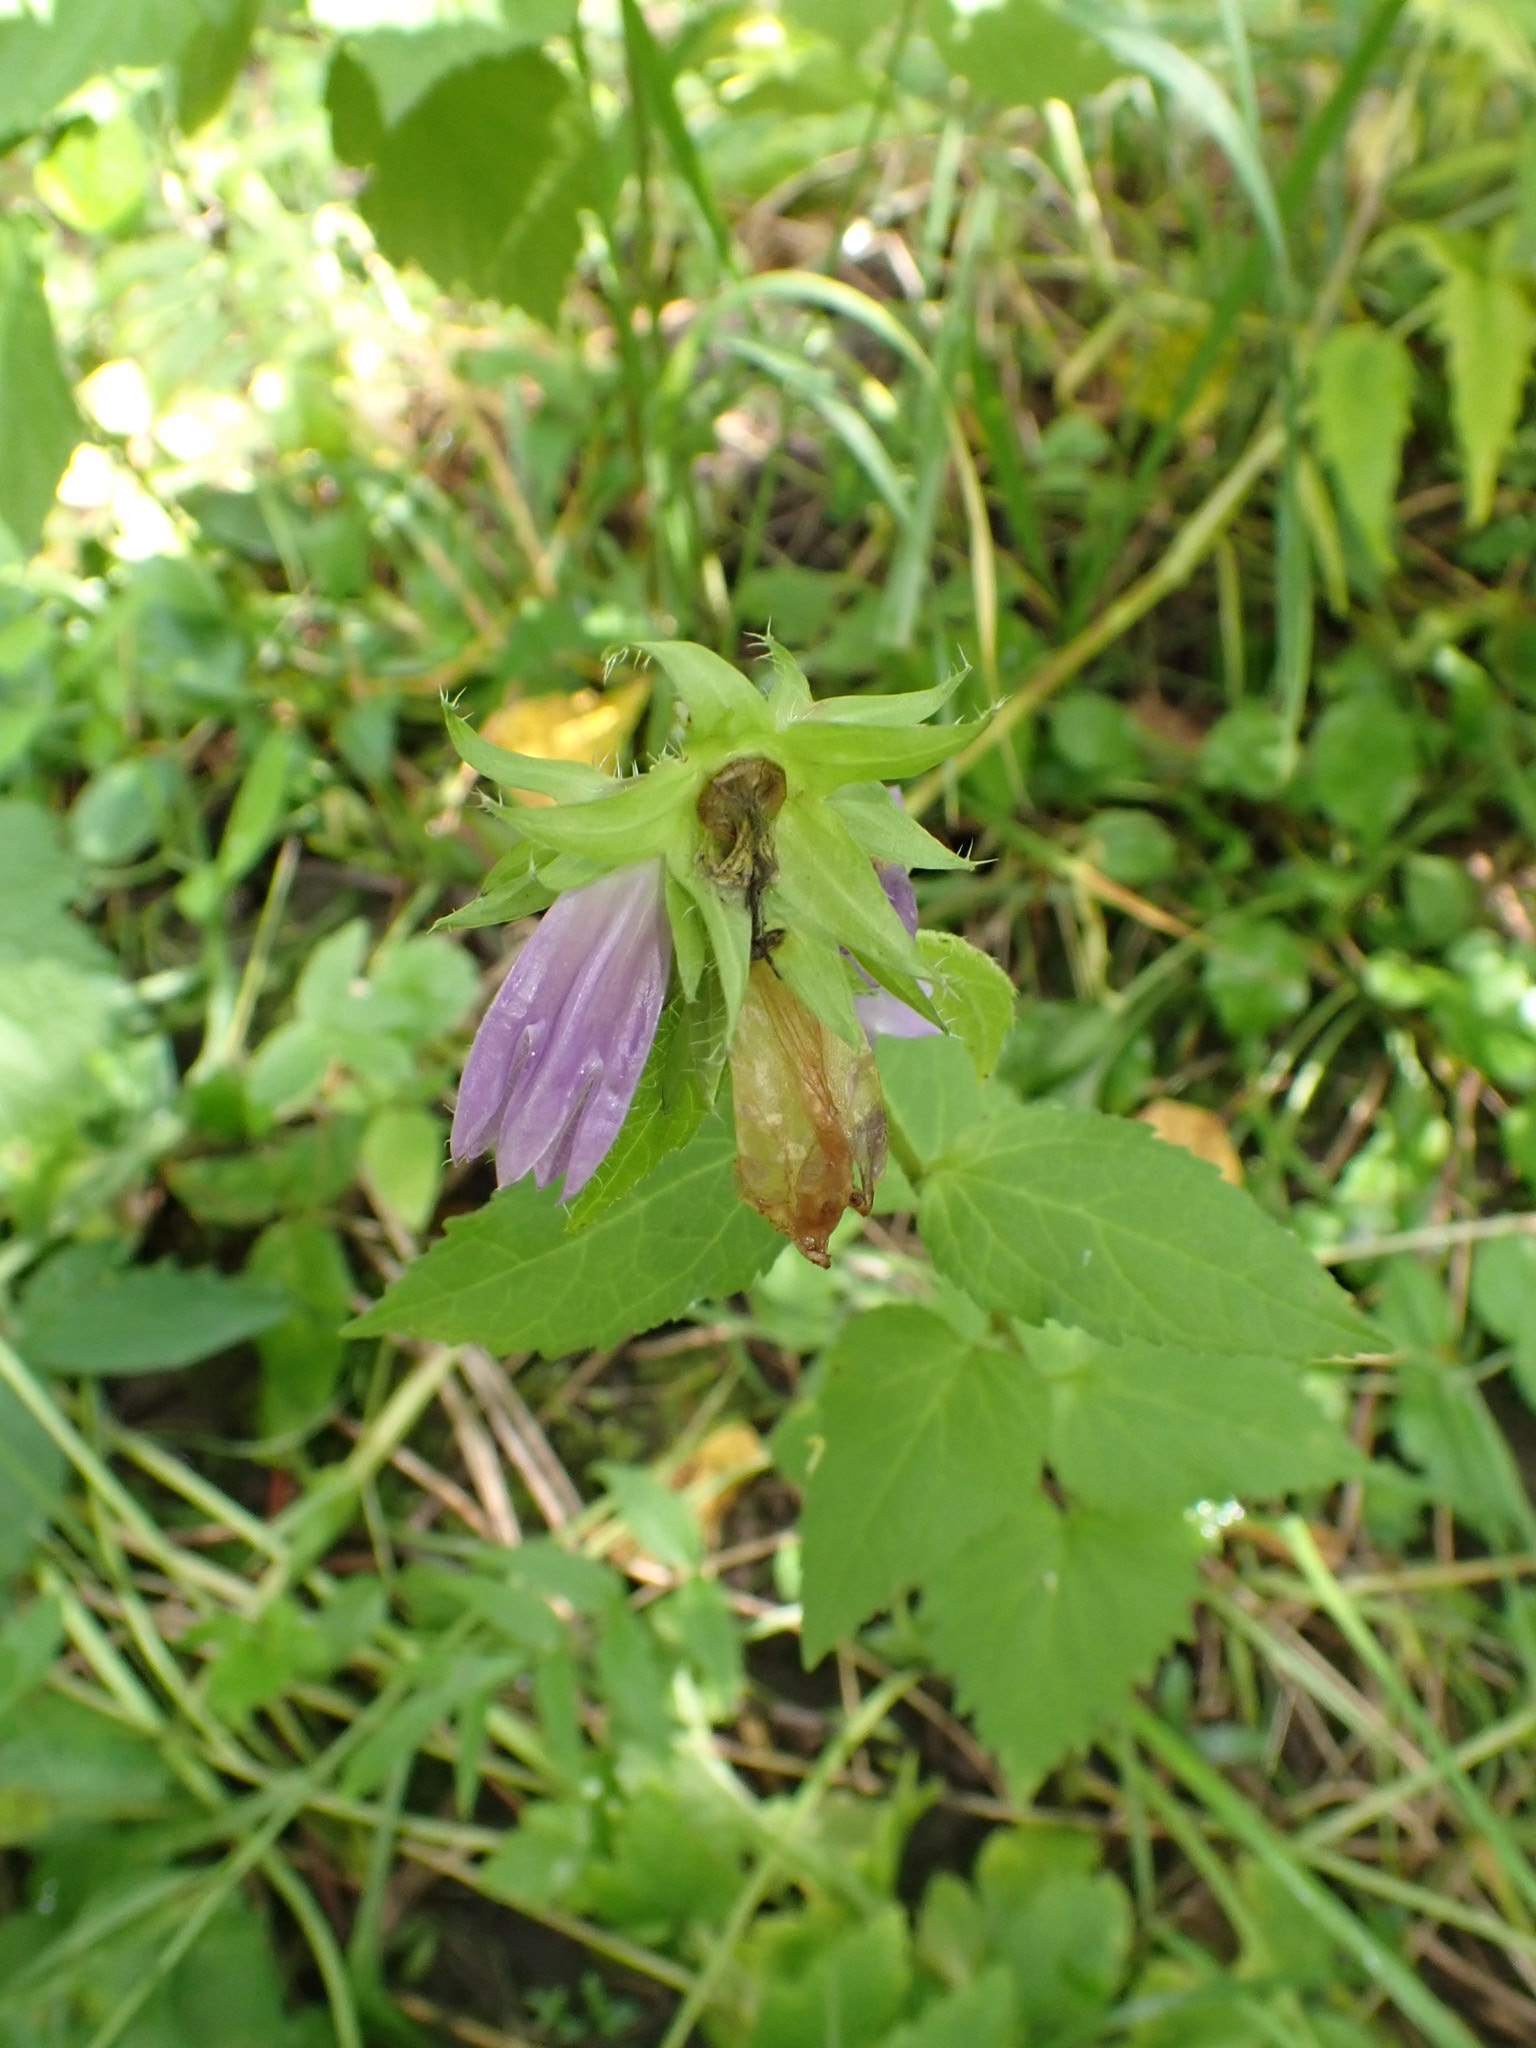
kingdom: Plantae
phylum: Tracheophyta
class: Magnoliopsida
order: Asterales
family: Campanulaceae
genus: Campanula
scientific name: Campanula trachelium
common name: Nettle-leaved bellflower
